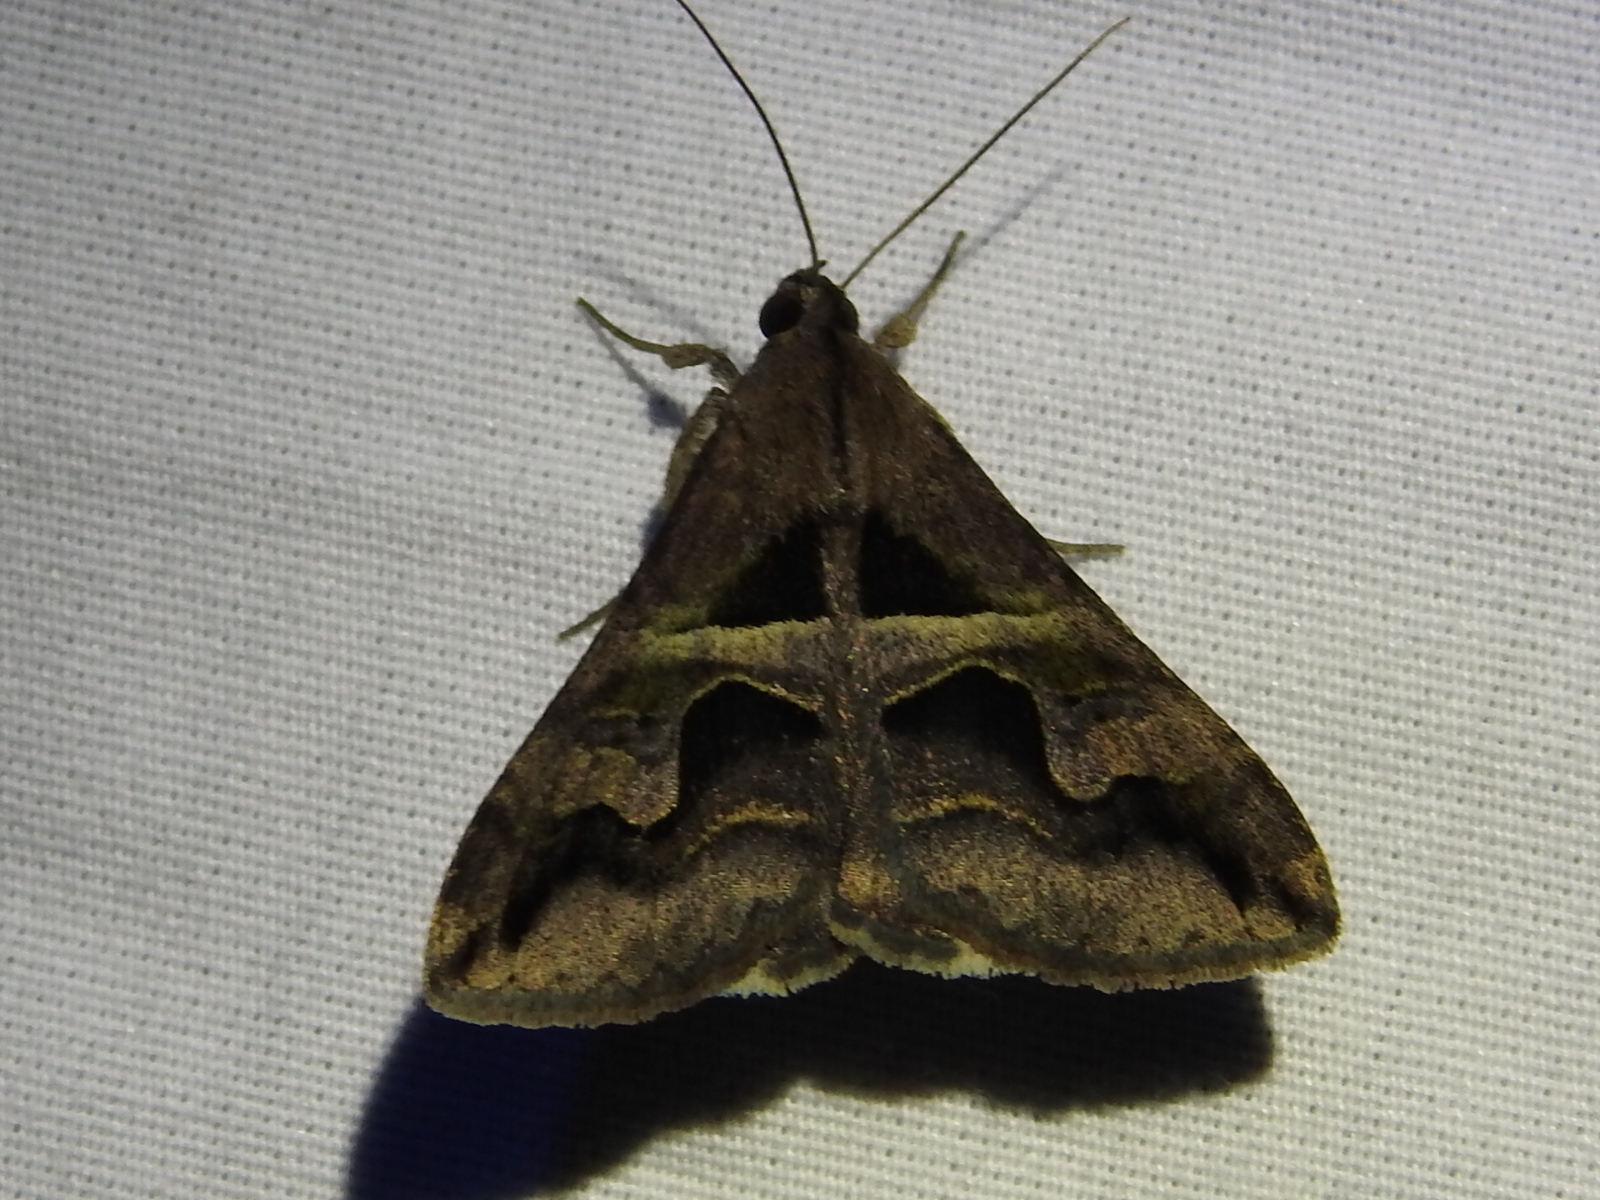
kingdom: Animalia
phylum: Arthropoda
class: Insecta
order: Lepidoptera
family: Erebidae
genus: Melipotis
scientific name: Melipotis cellaris
